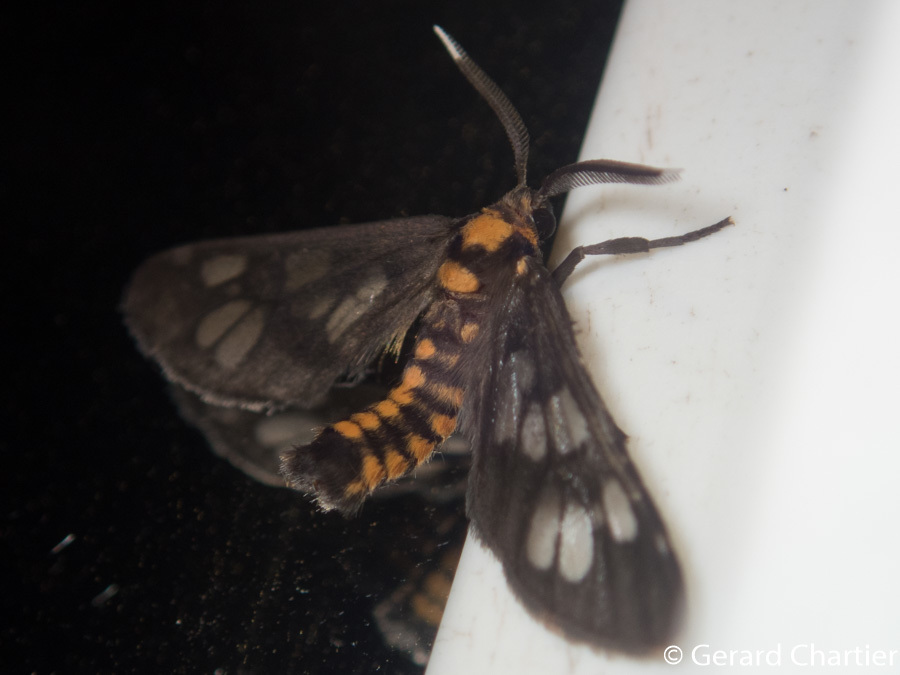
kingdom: Animalia
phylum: Arthropoda
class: Insecta
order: Lepidoptera
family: Erebidae
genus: Eressa
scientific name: Eressa confinis
